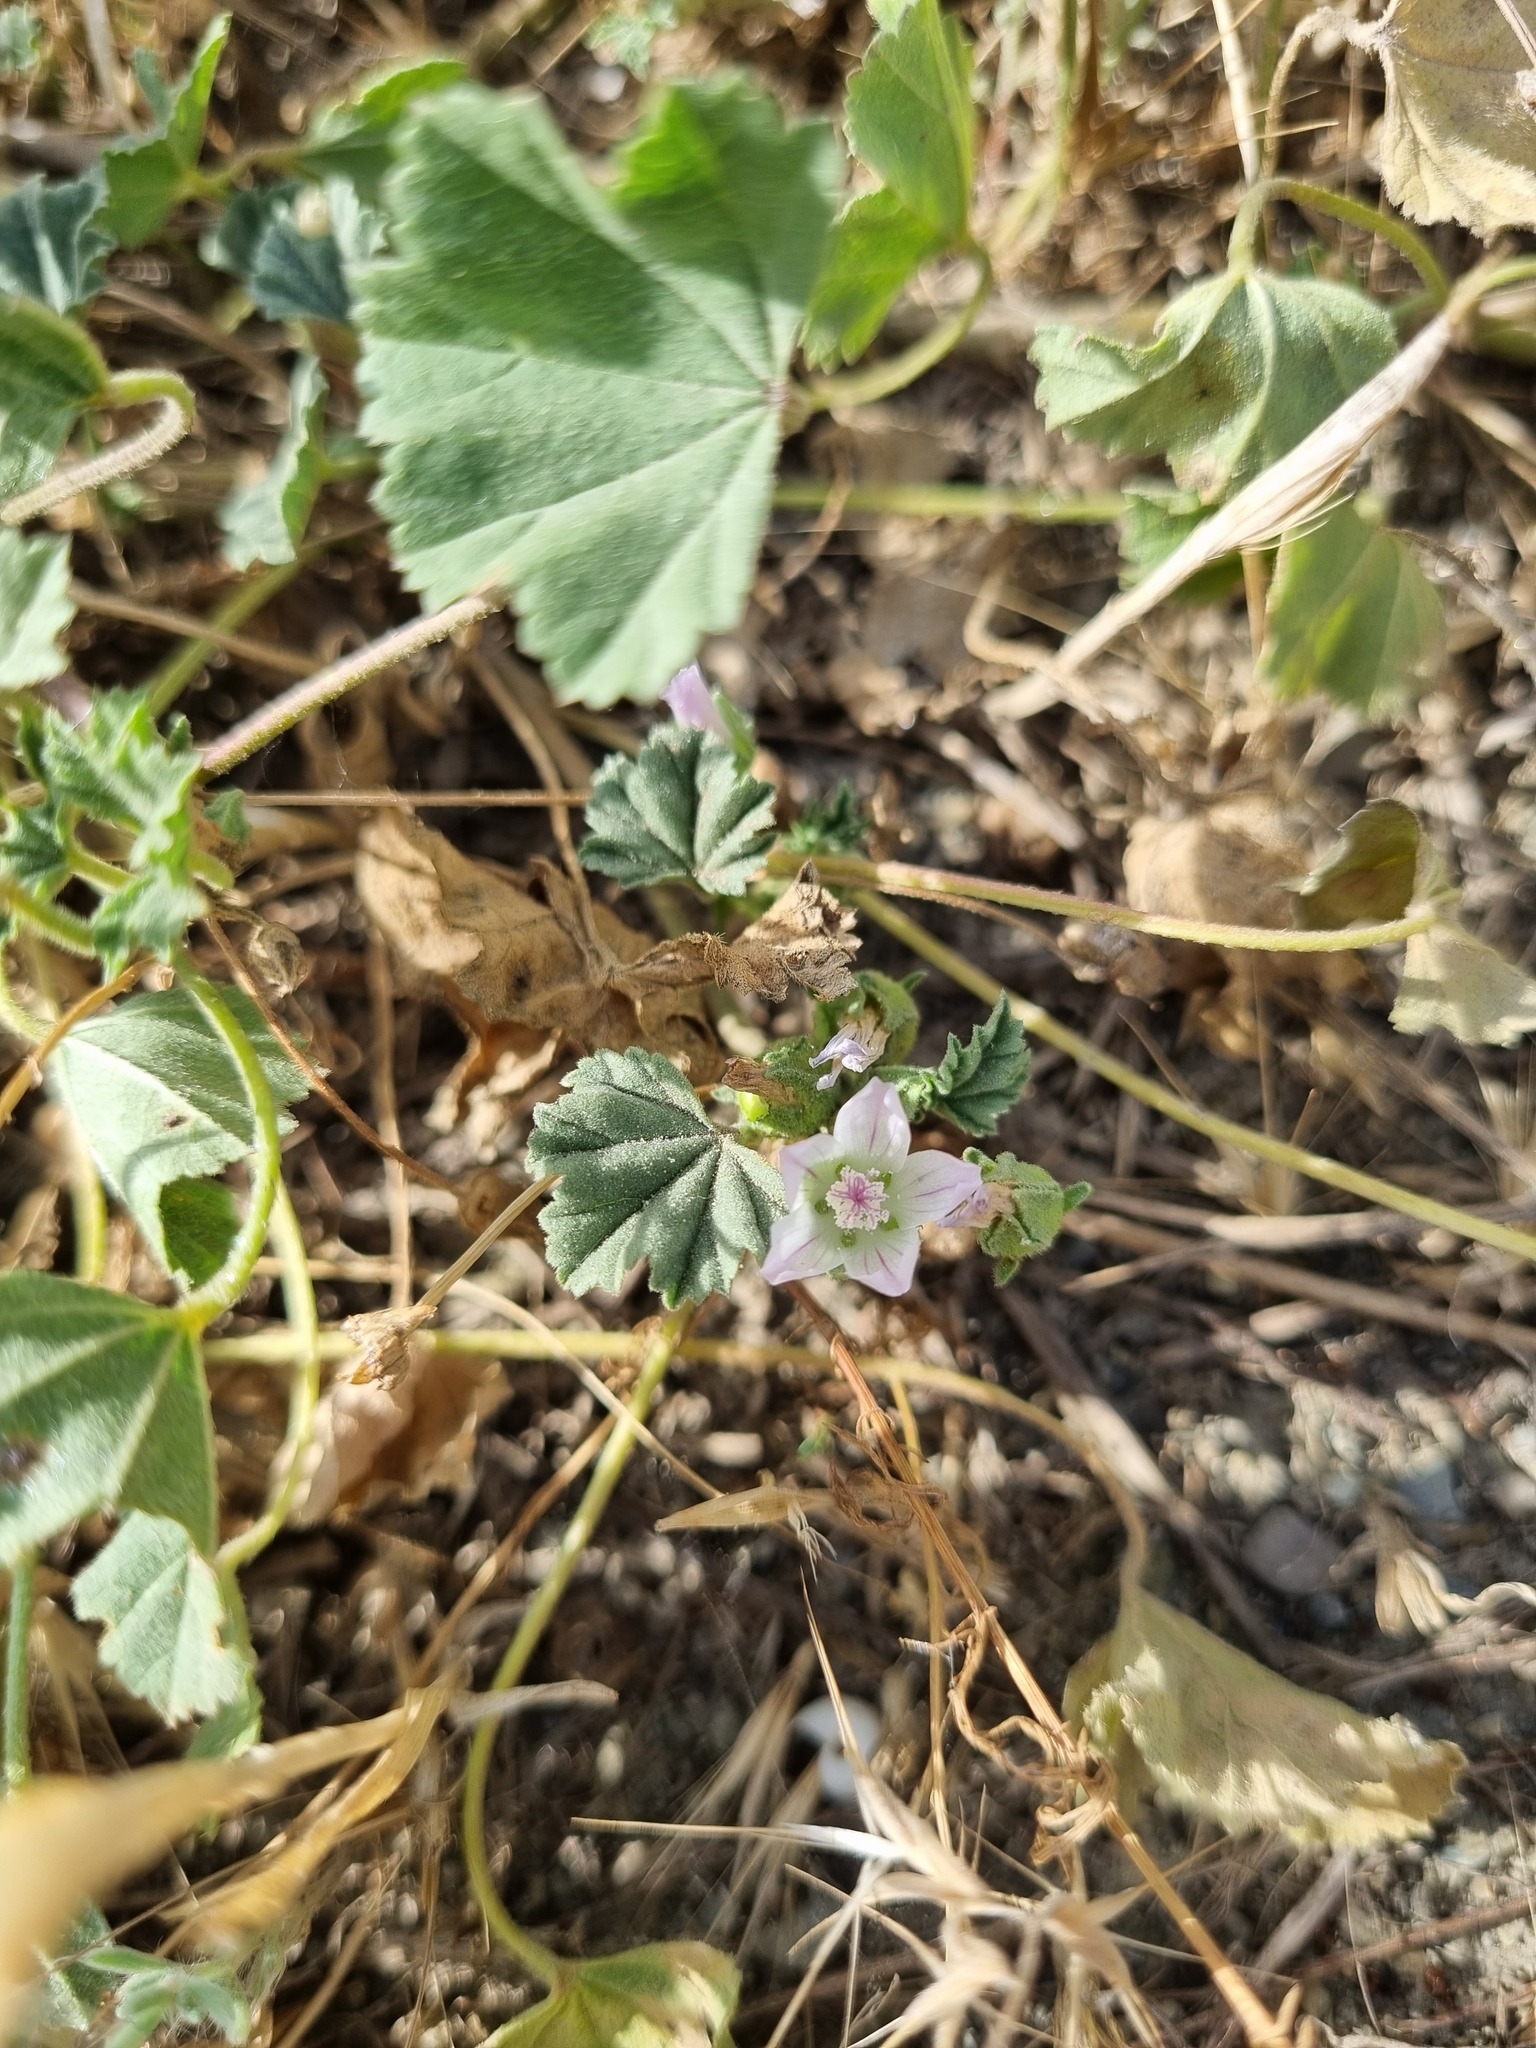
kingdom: Plantae
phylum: Tracheophyta
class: Magnoliopsida
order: Malvales
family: Malvaceae
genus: Malva
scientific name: Malva neglecta
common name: Common mallow
